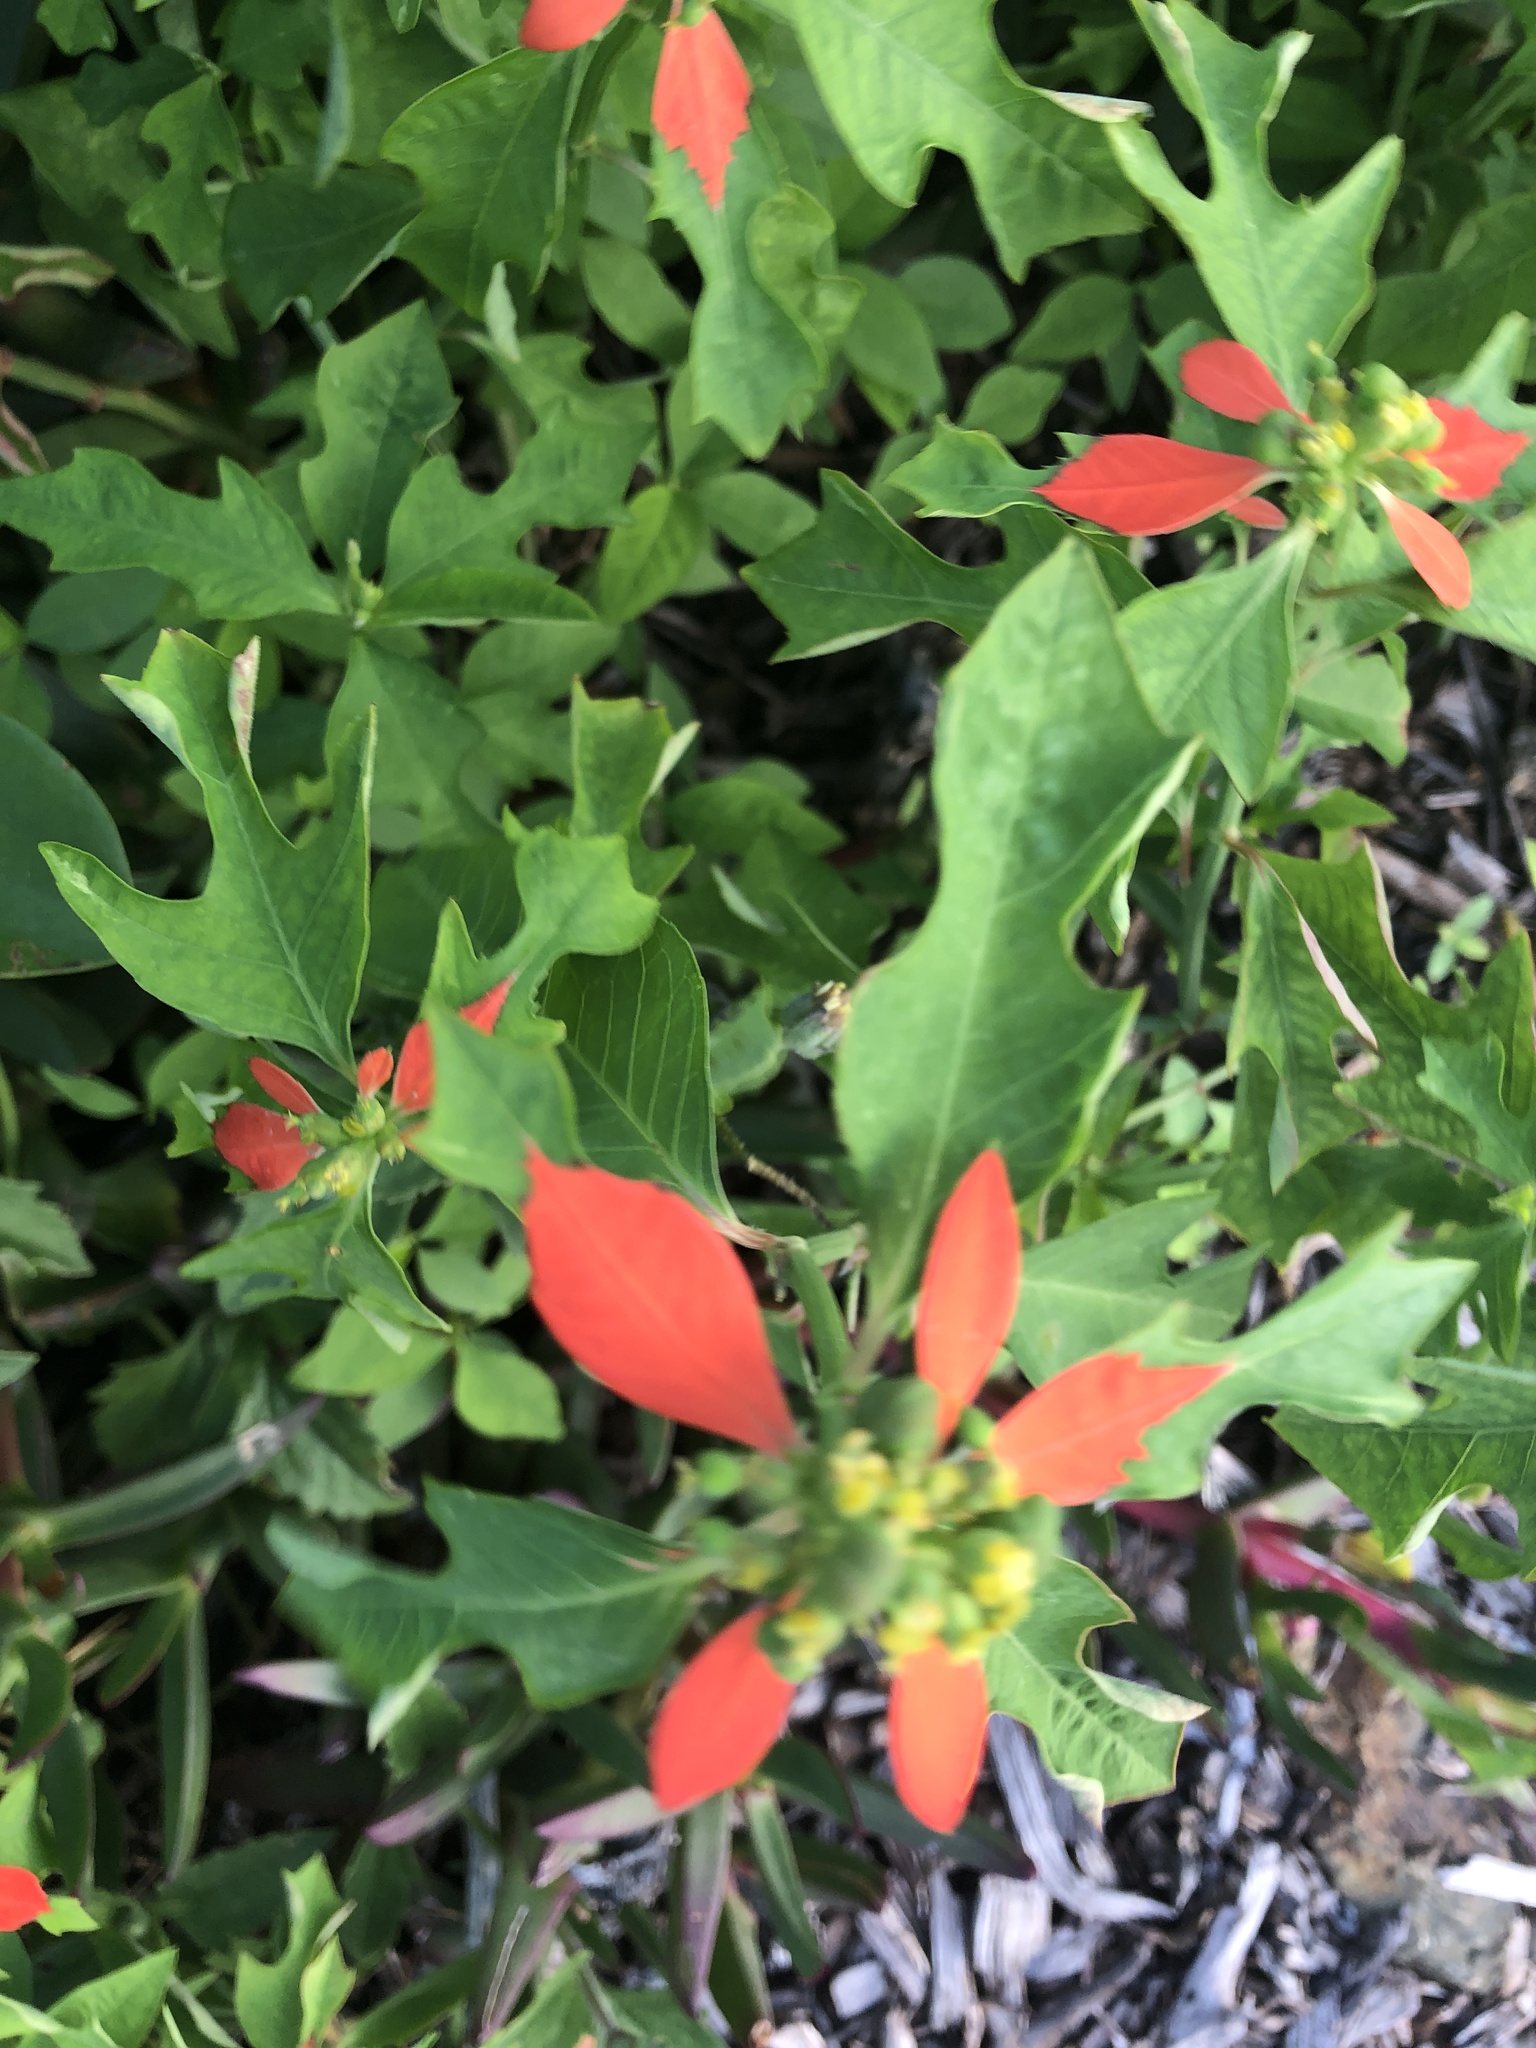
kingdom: Plantae
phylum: Tracheophyta
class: Magnoliopsida
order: Malpighiales
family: Euphorbiaceae
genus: Euphorbia
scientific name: Euphorbia heterophylla
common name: Mexican fireplant
